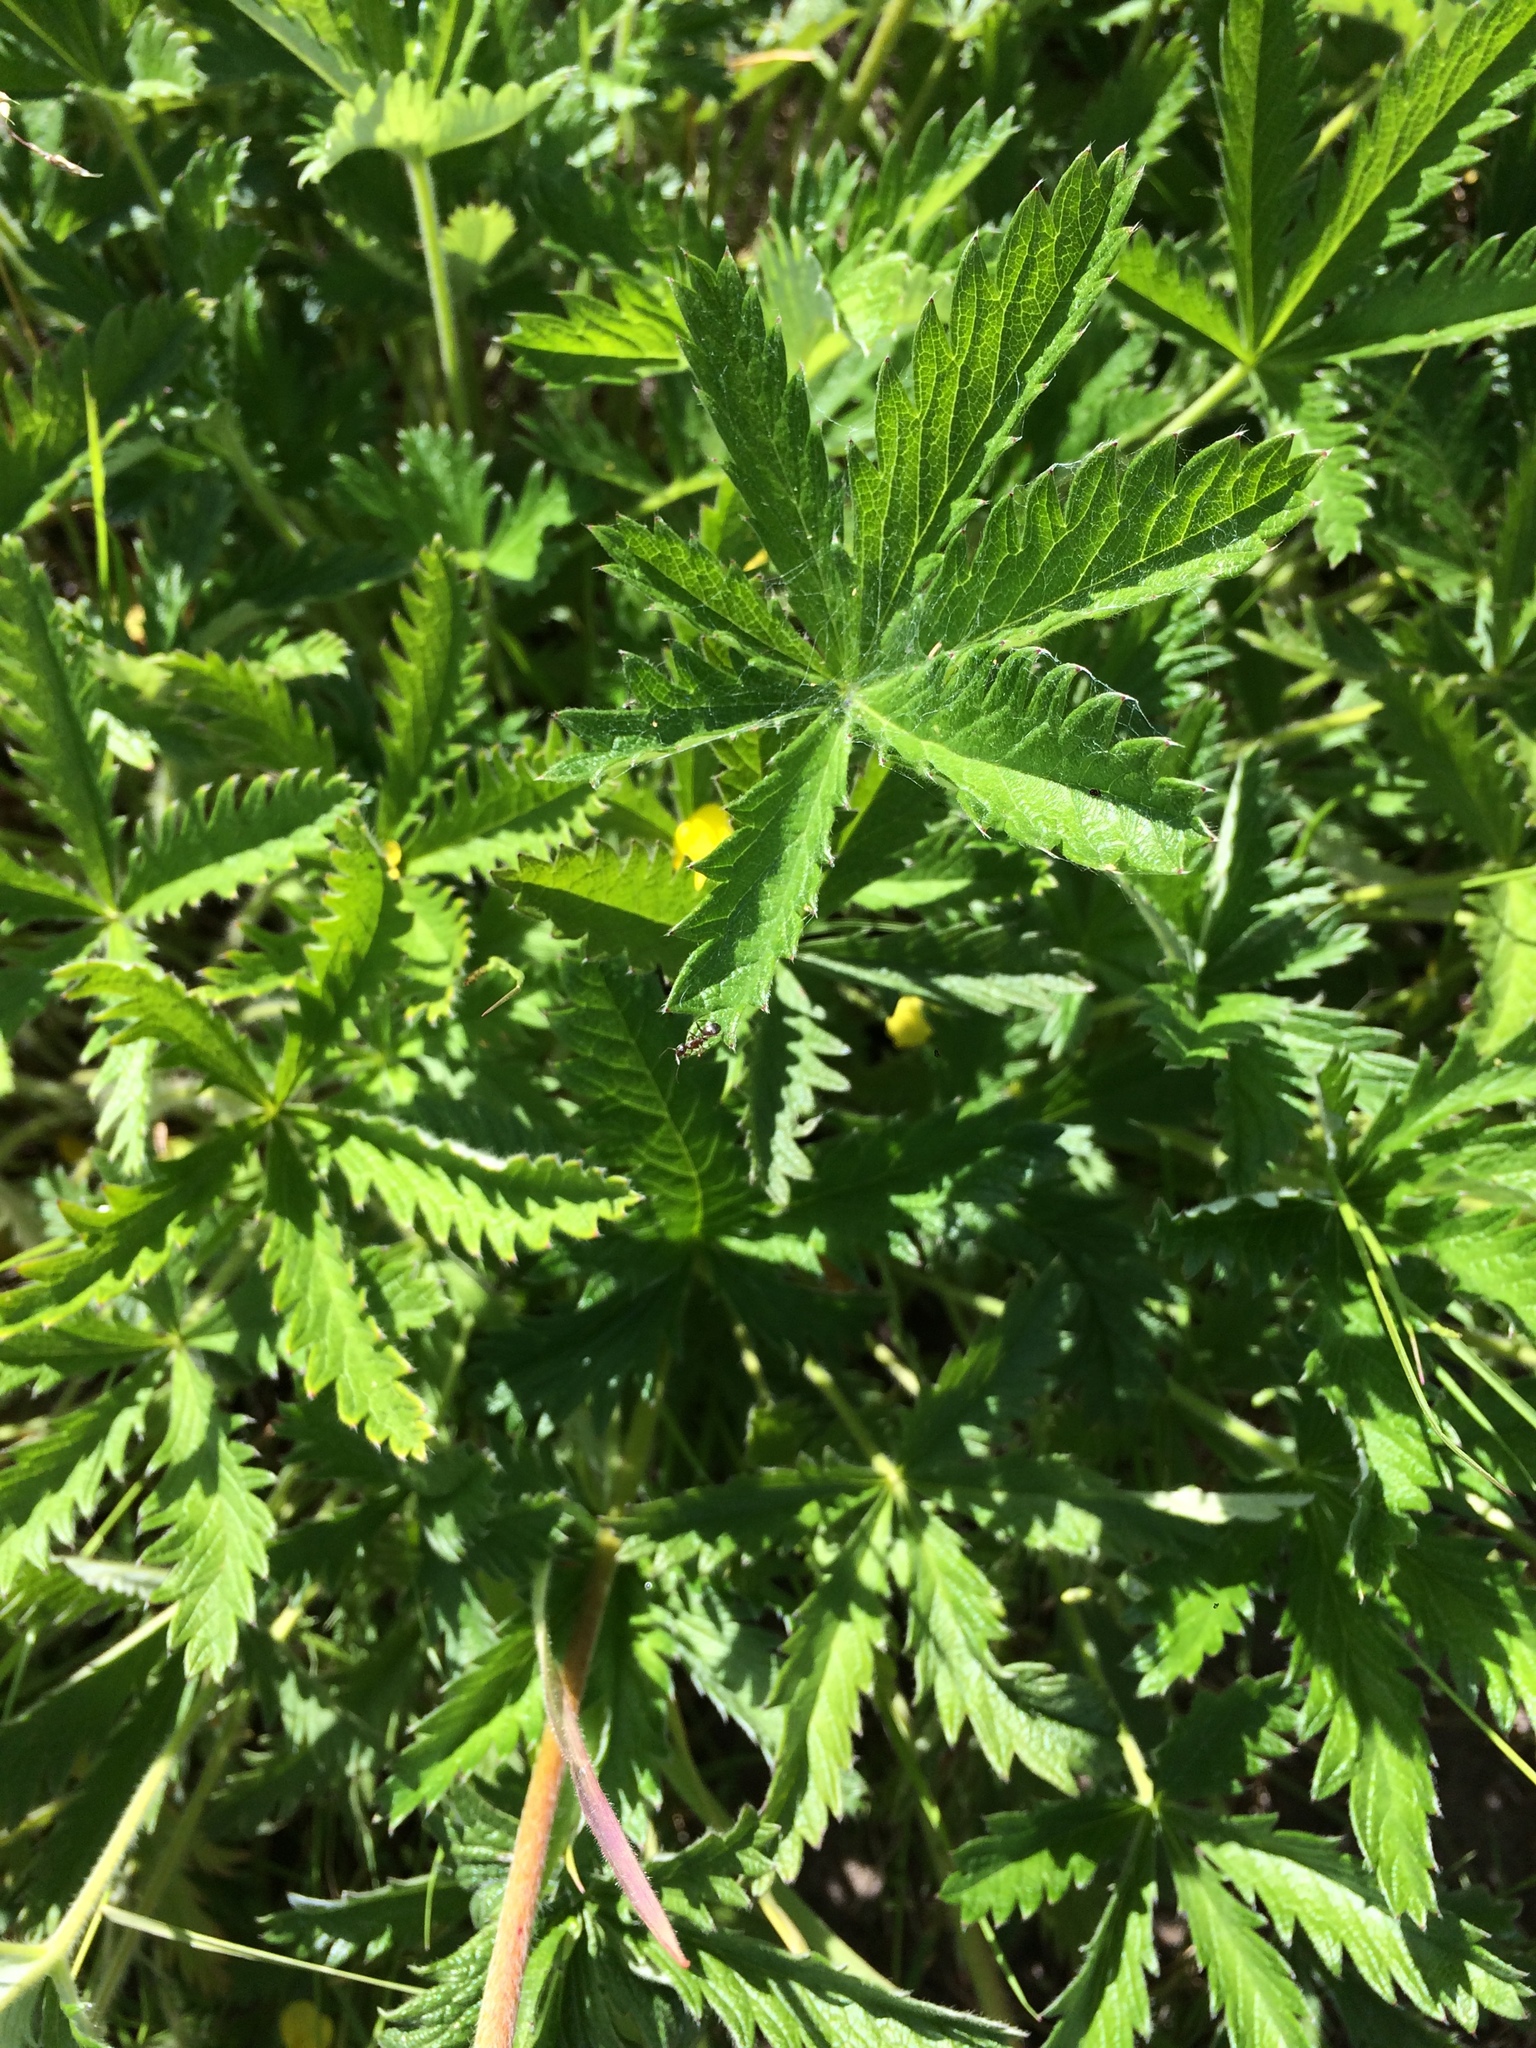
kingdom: Plantae
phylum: Tracheophyta
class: Magnoliopsida
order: Rosales
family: Rosaceae
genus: Potentilla
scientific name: Potentilla gracilis
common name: Graceful cinquefoil
